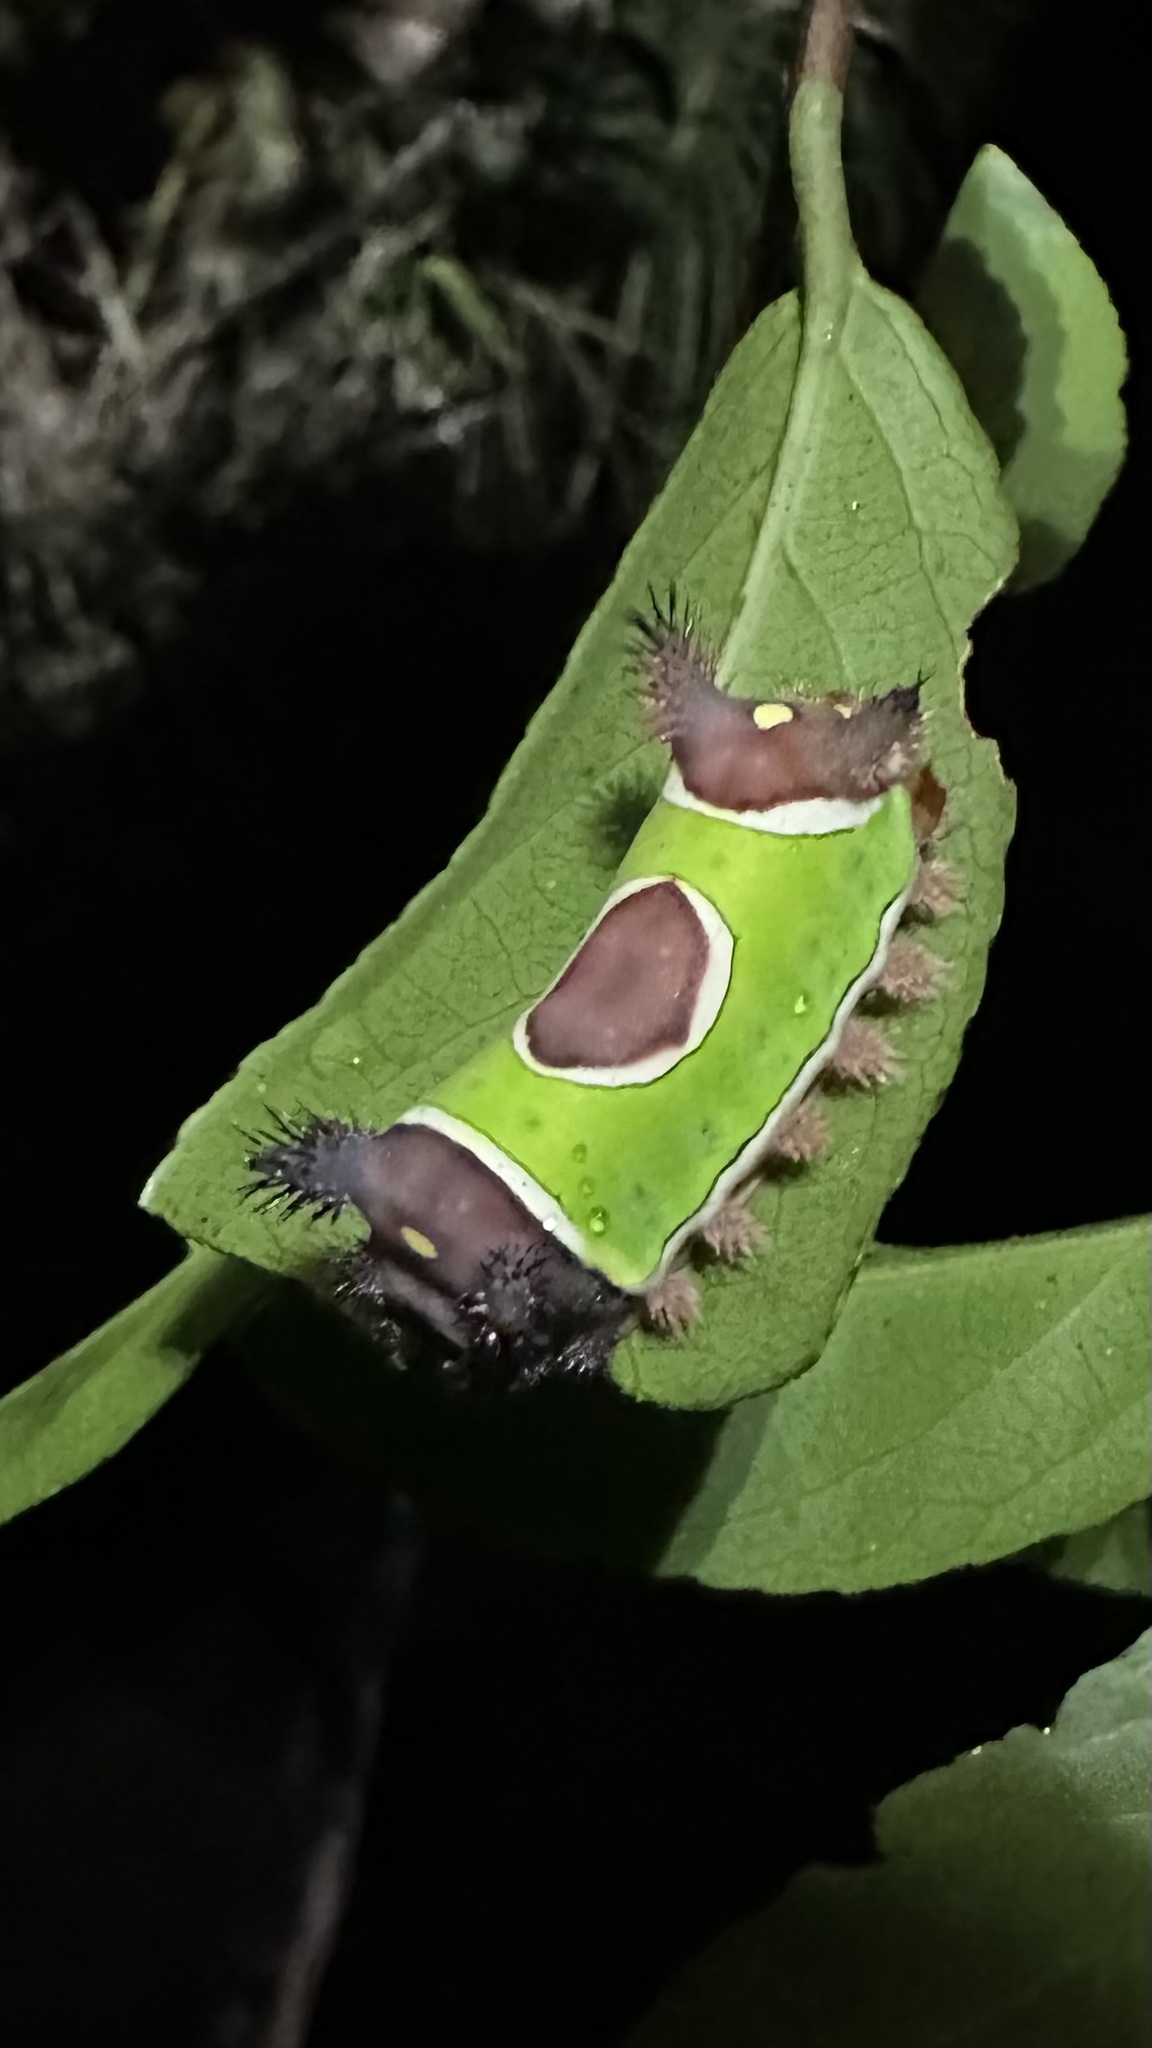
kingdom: Animalia
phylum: Arthropoda
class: Insecta
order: Lepidoptera
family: Limacodidae
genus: Acharia
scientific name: Acharia stimulea
